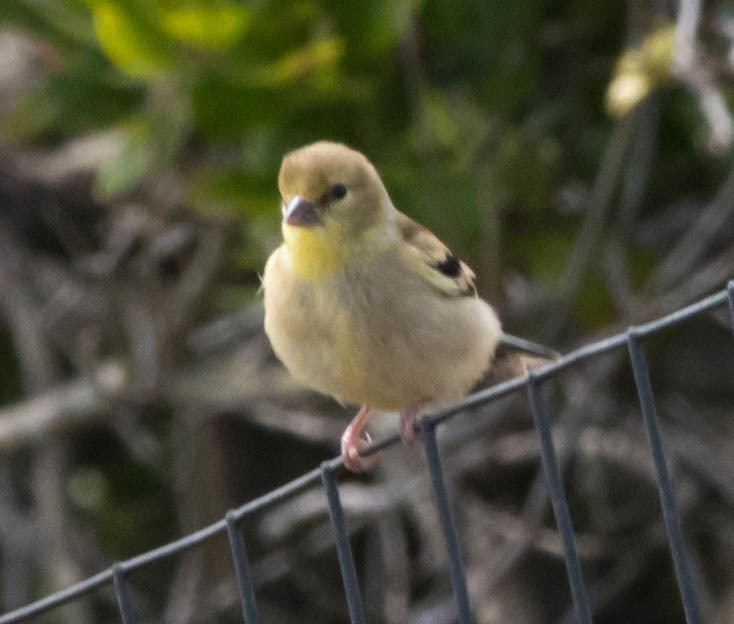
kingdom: Animalia
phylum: Chordata
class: Aves
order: Passeriformes
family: Fringillidae
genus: Spinus
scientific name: Spinus tristis
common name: American goldfinch
